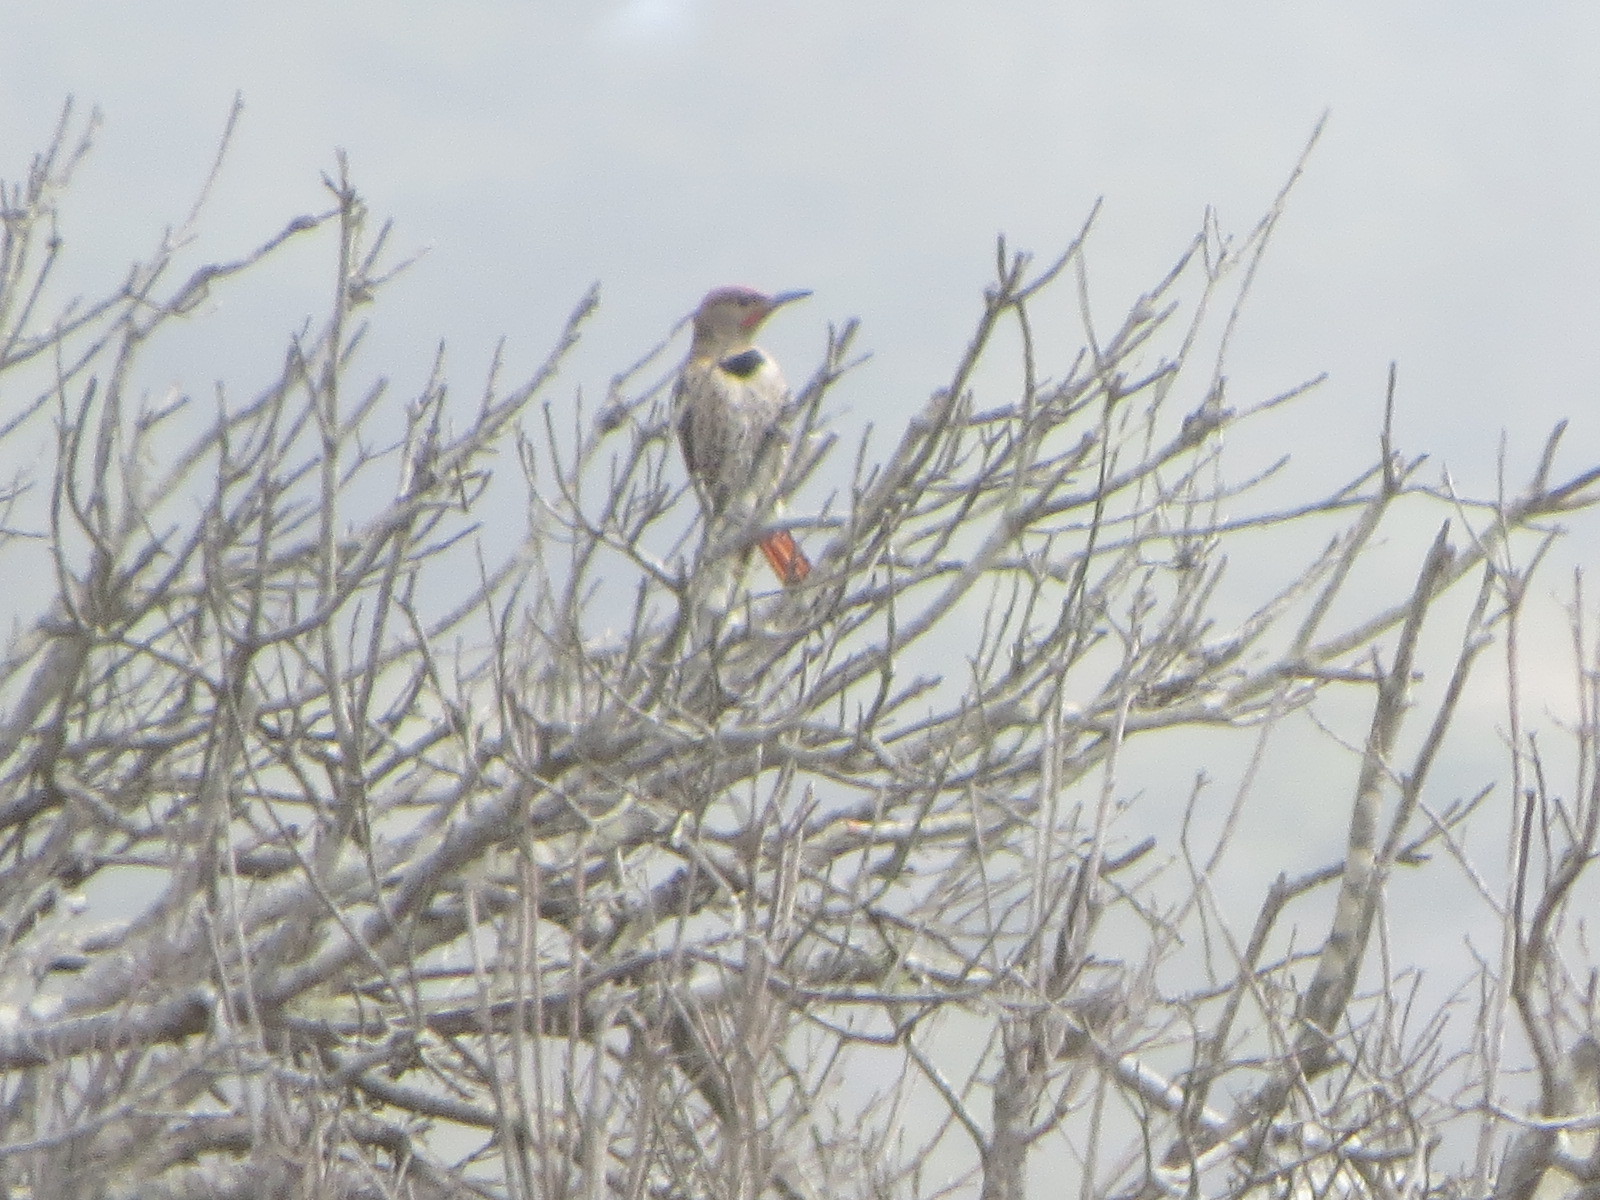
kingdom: Animalia
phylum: Chordata
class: Aves
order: Piciformes
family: Picidae
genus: Colaptes
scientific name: Colaptes auratus
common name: Northern flicker
